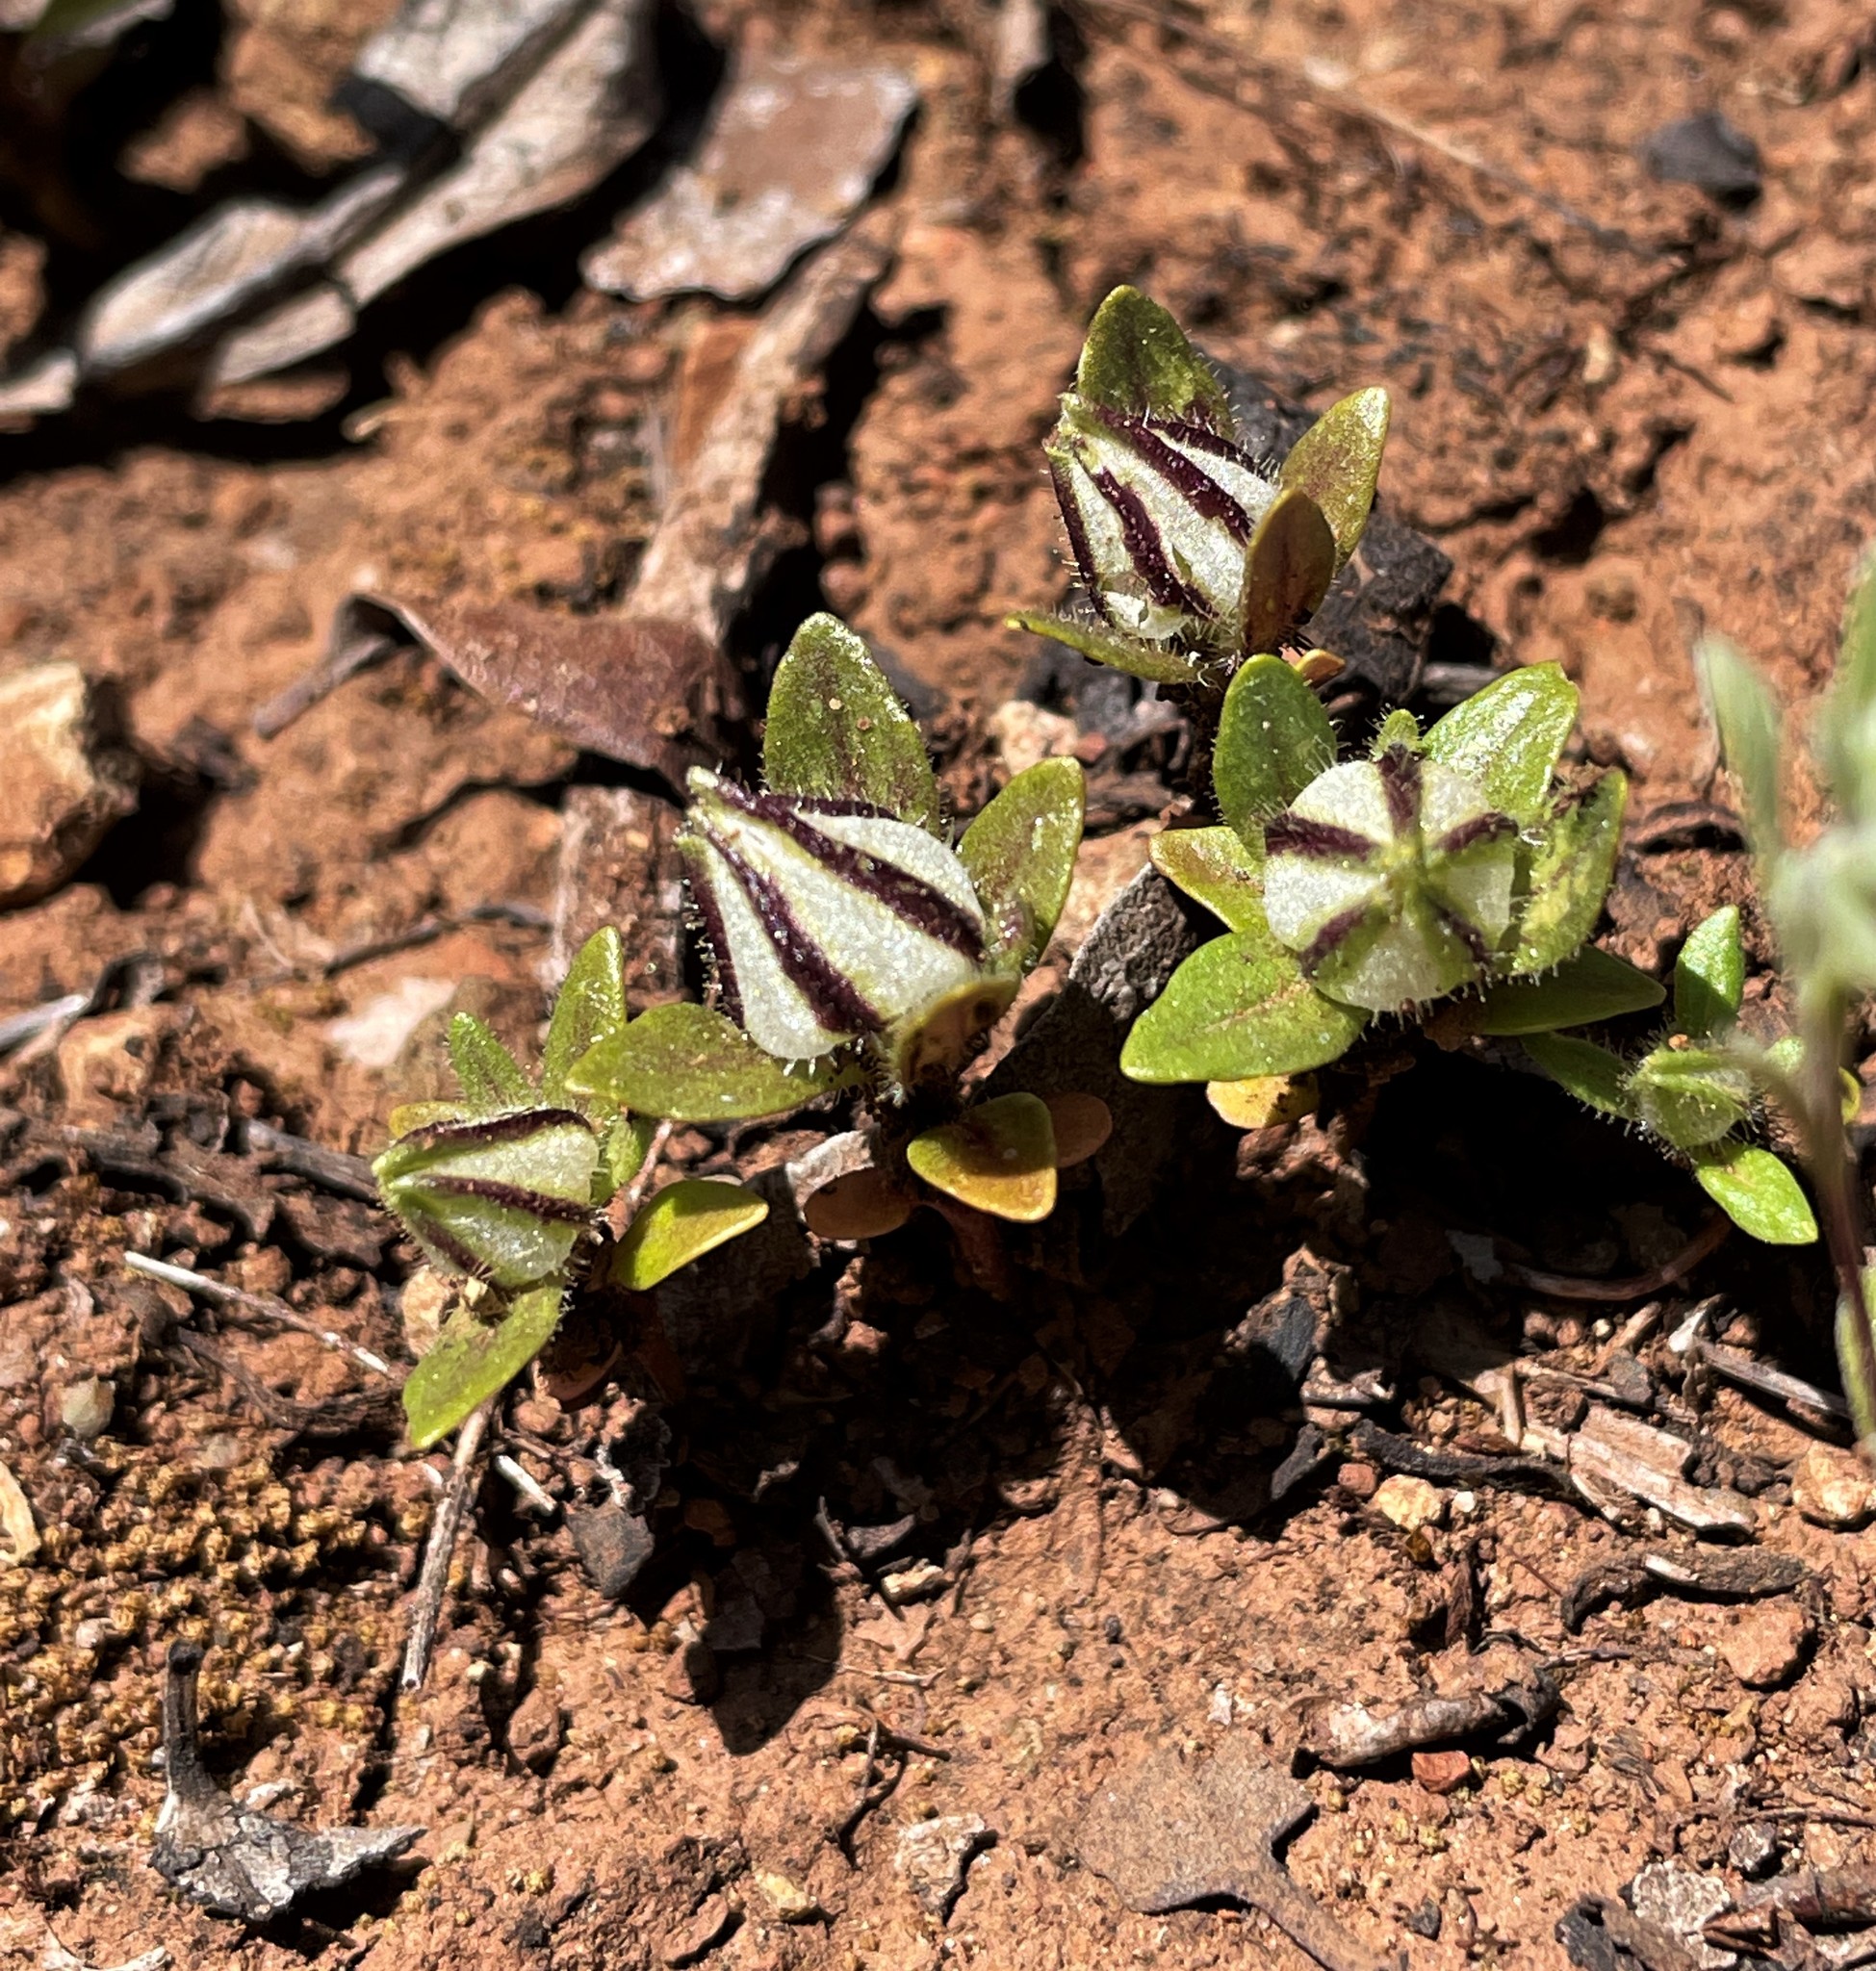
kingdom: Plantae
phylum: Tracheophyta
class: Magnoliopsida
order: Lamiales
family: Phrymaceae
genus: Diplacus
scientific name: Diplacus douglasii
